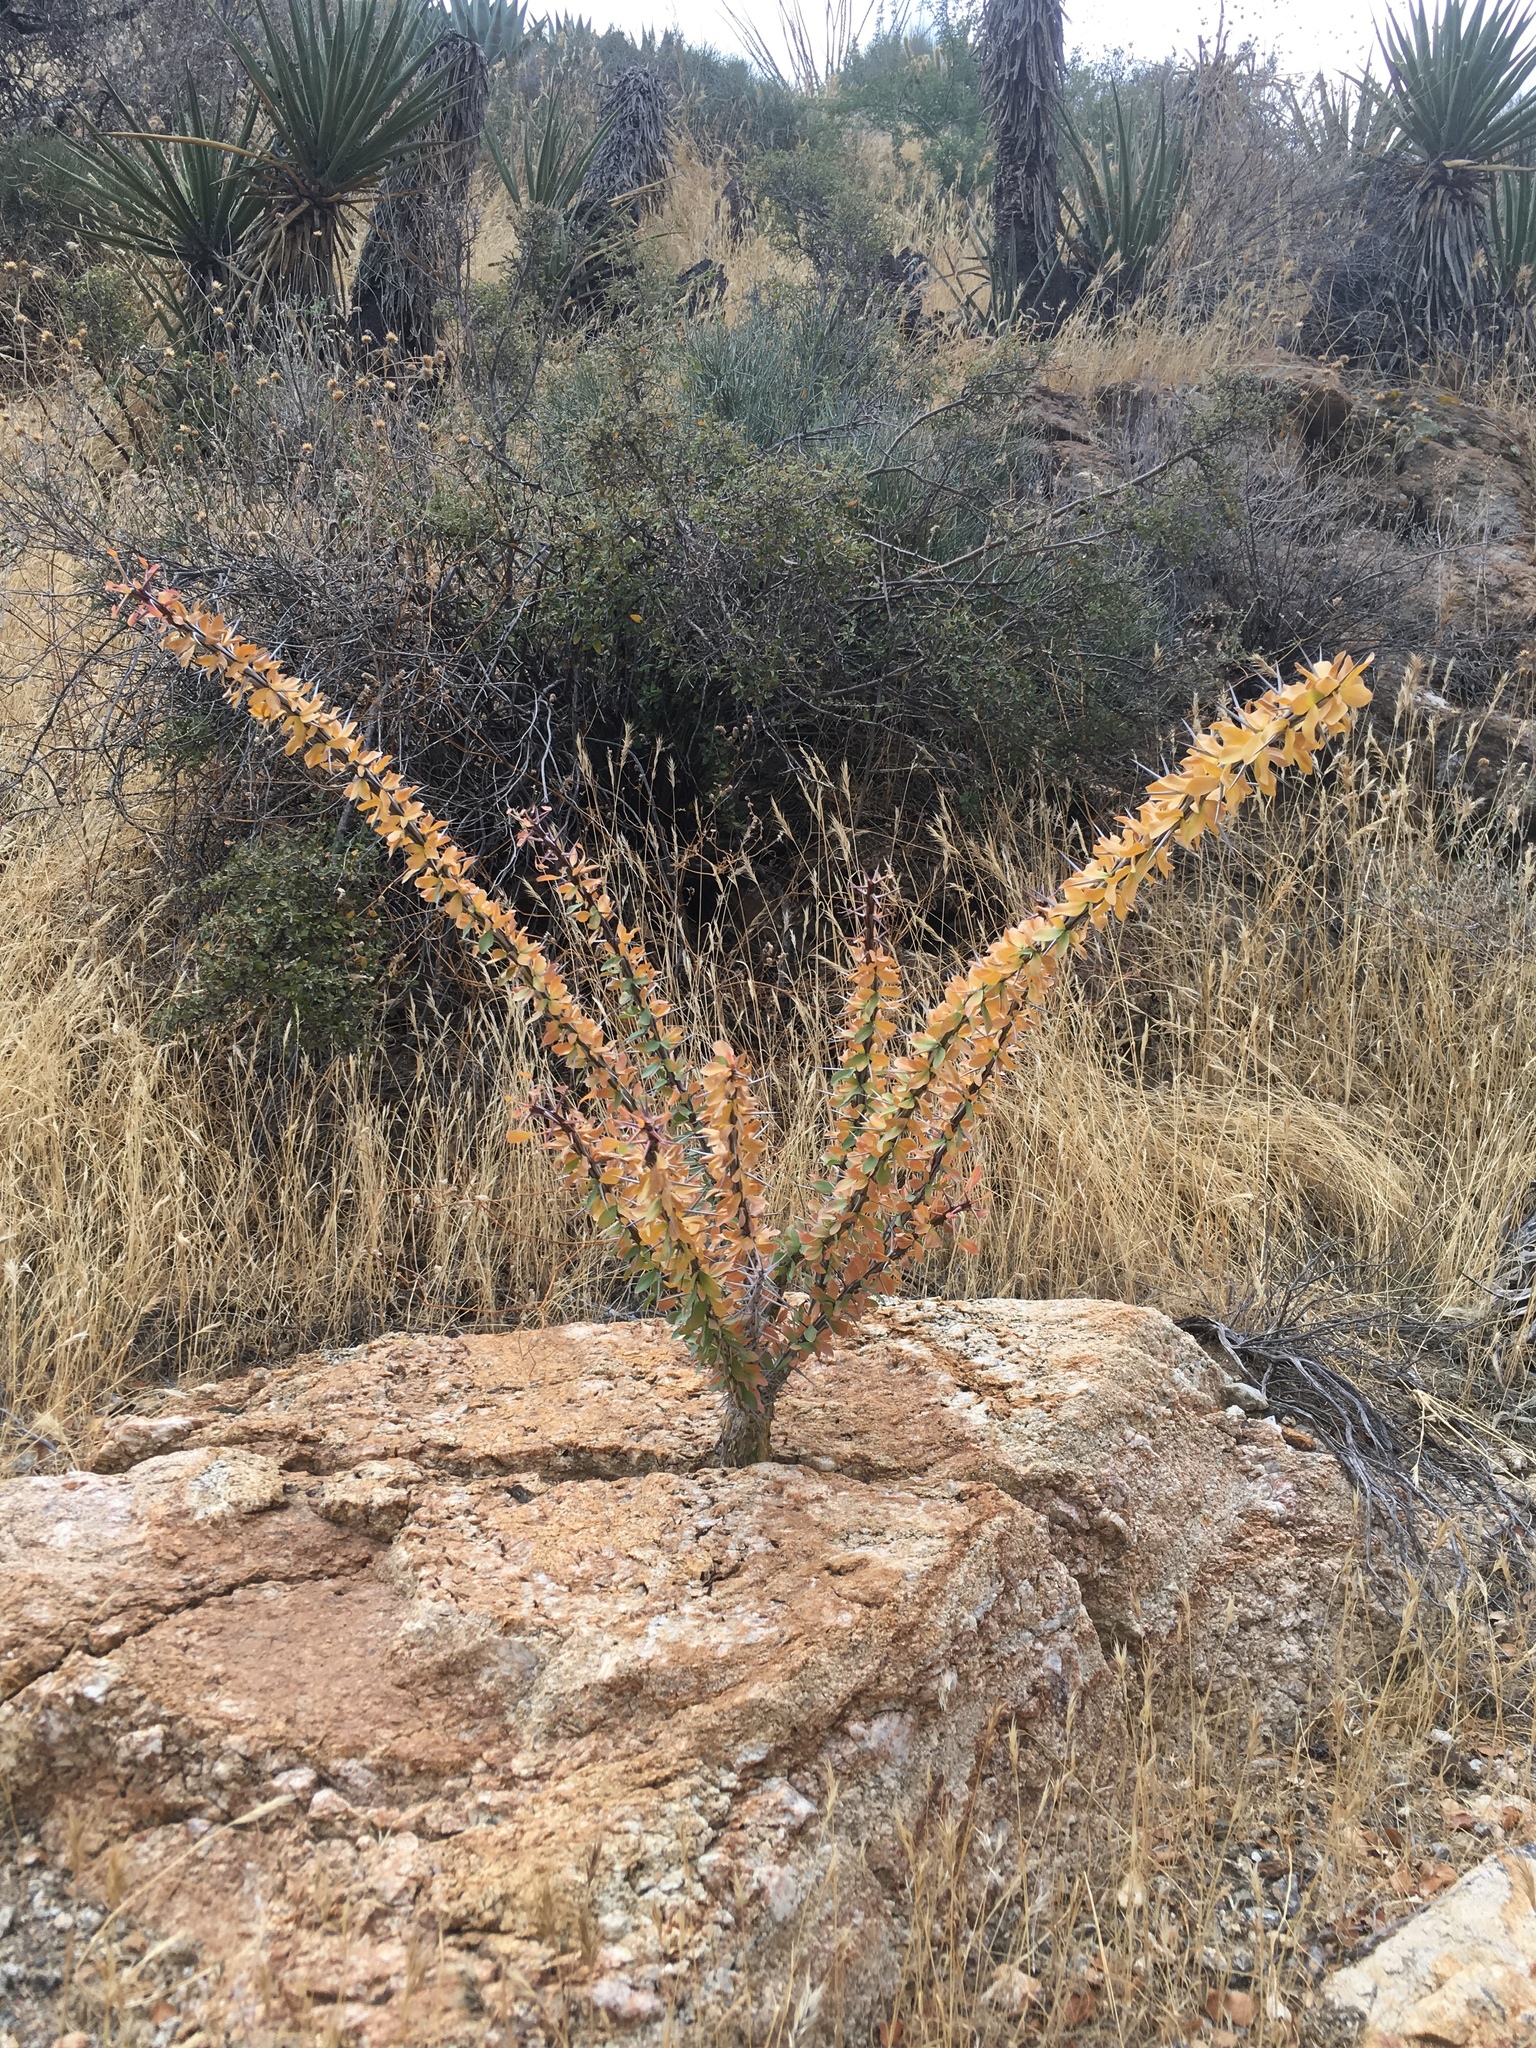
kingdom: Plantae
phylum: Tracheophyta
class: Magnoliopsida
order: Ericales
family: Fouquieriaceae
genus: Fouquieria
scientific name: Fouquieria splendens
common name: Vine-cactus
